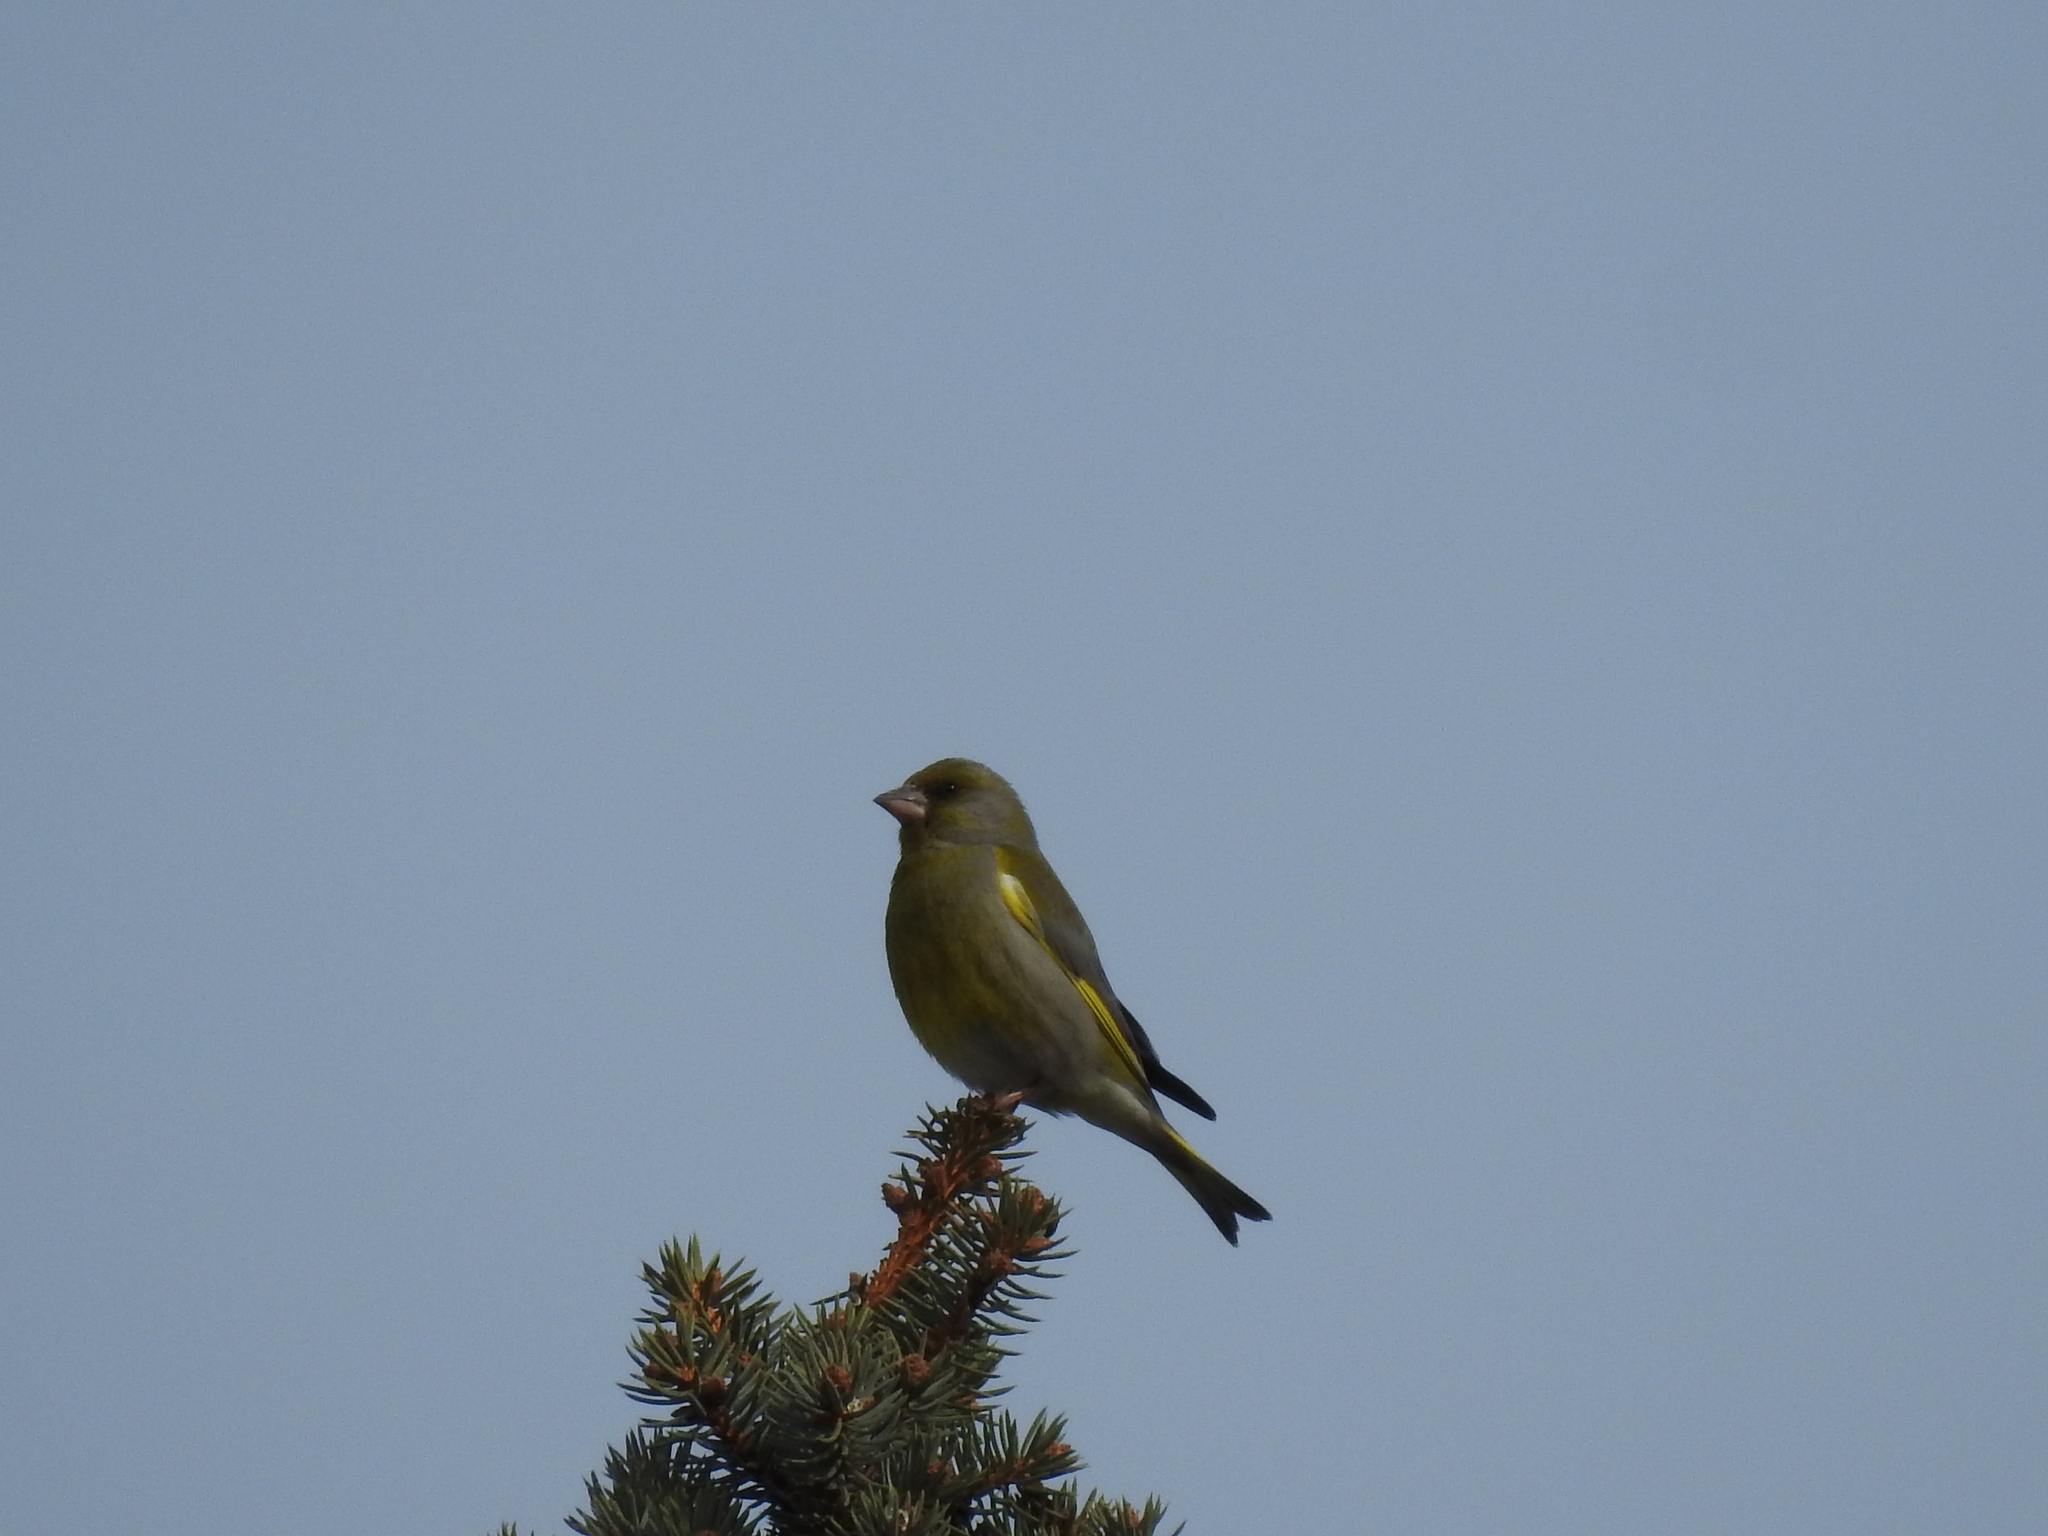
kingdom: Plantae
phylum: Tracheophyta
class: Liliopsida
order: Poales
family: Poaceae
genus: Chloris
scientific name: Chloris chloris
